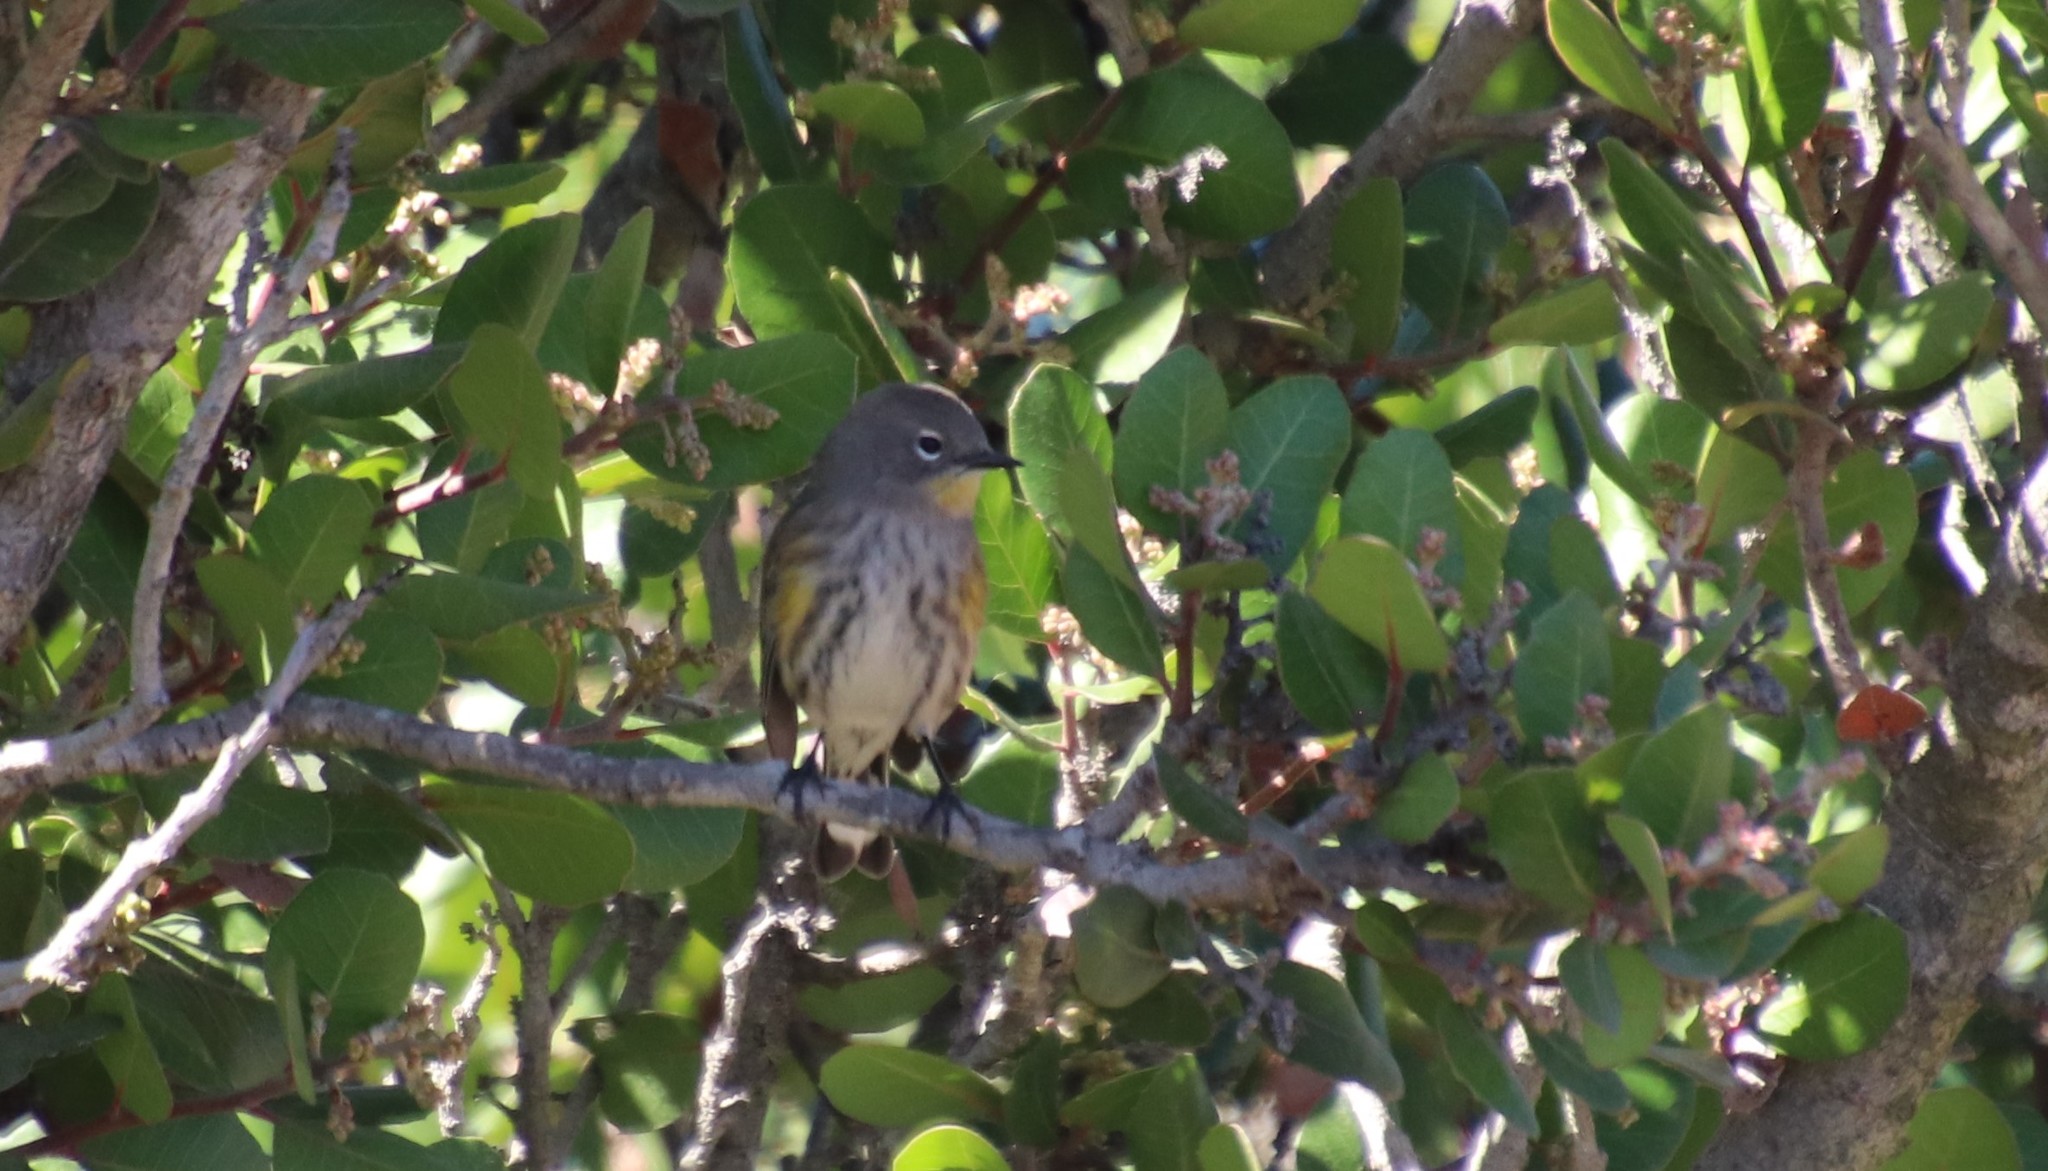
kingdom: Animalia
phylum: Chordata
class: Aves
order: Passeriformes
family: Parulidae
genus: Setophaga
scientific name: Setophaga auduboni
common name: Audubon's warbler
